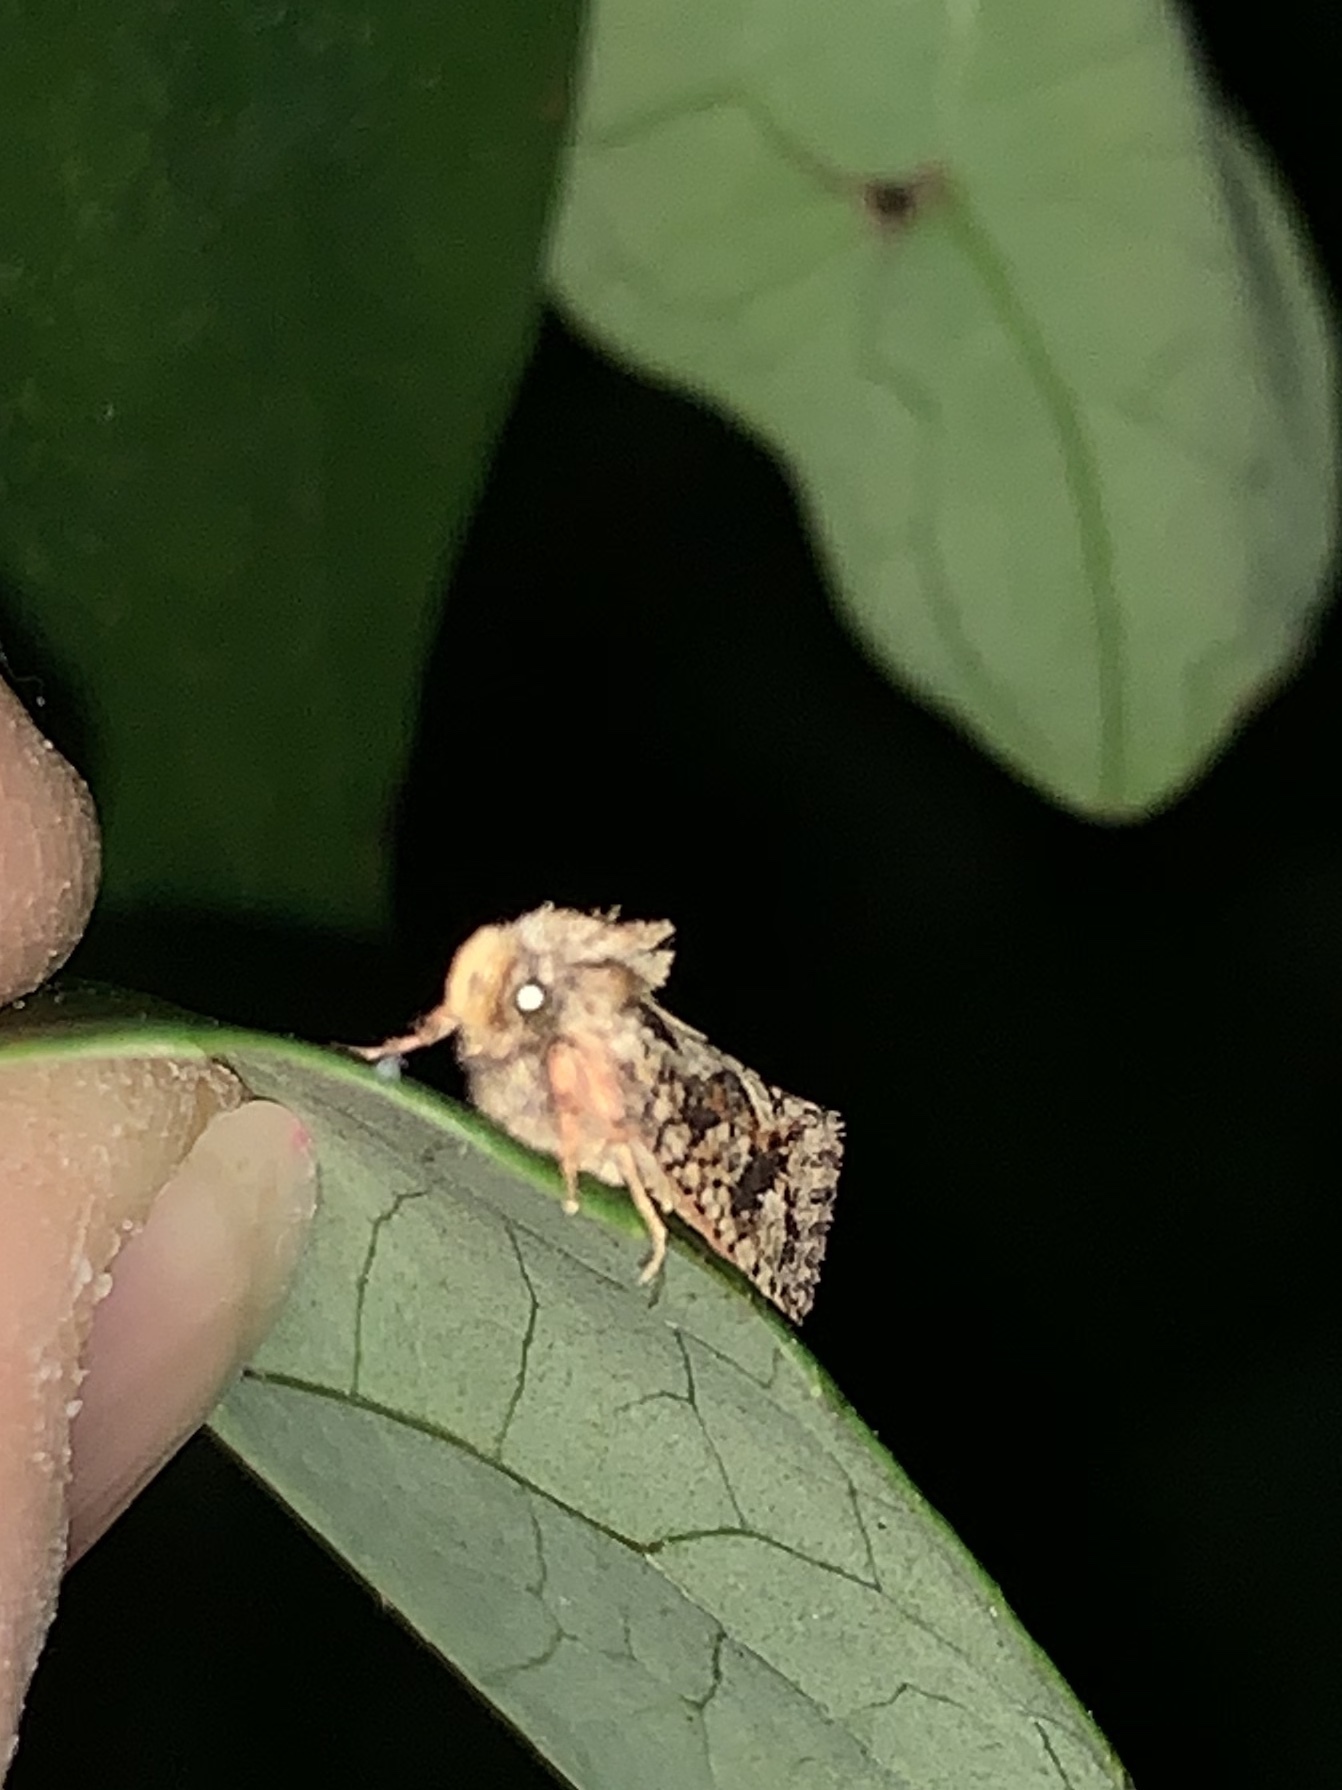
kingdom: Animalia
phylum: Arthropoda
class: Insecta
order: Lepidoptera
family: Tineidae
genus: Acrolophus
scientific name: Acrolophus walsinghami
